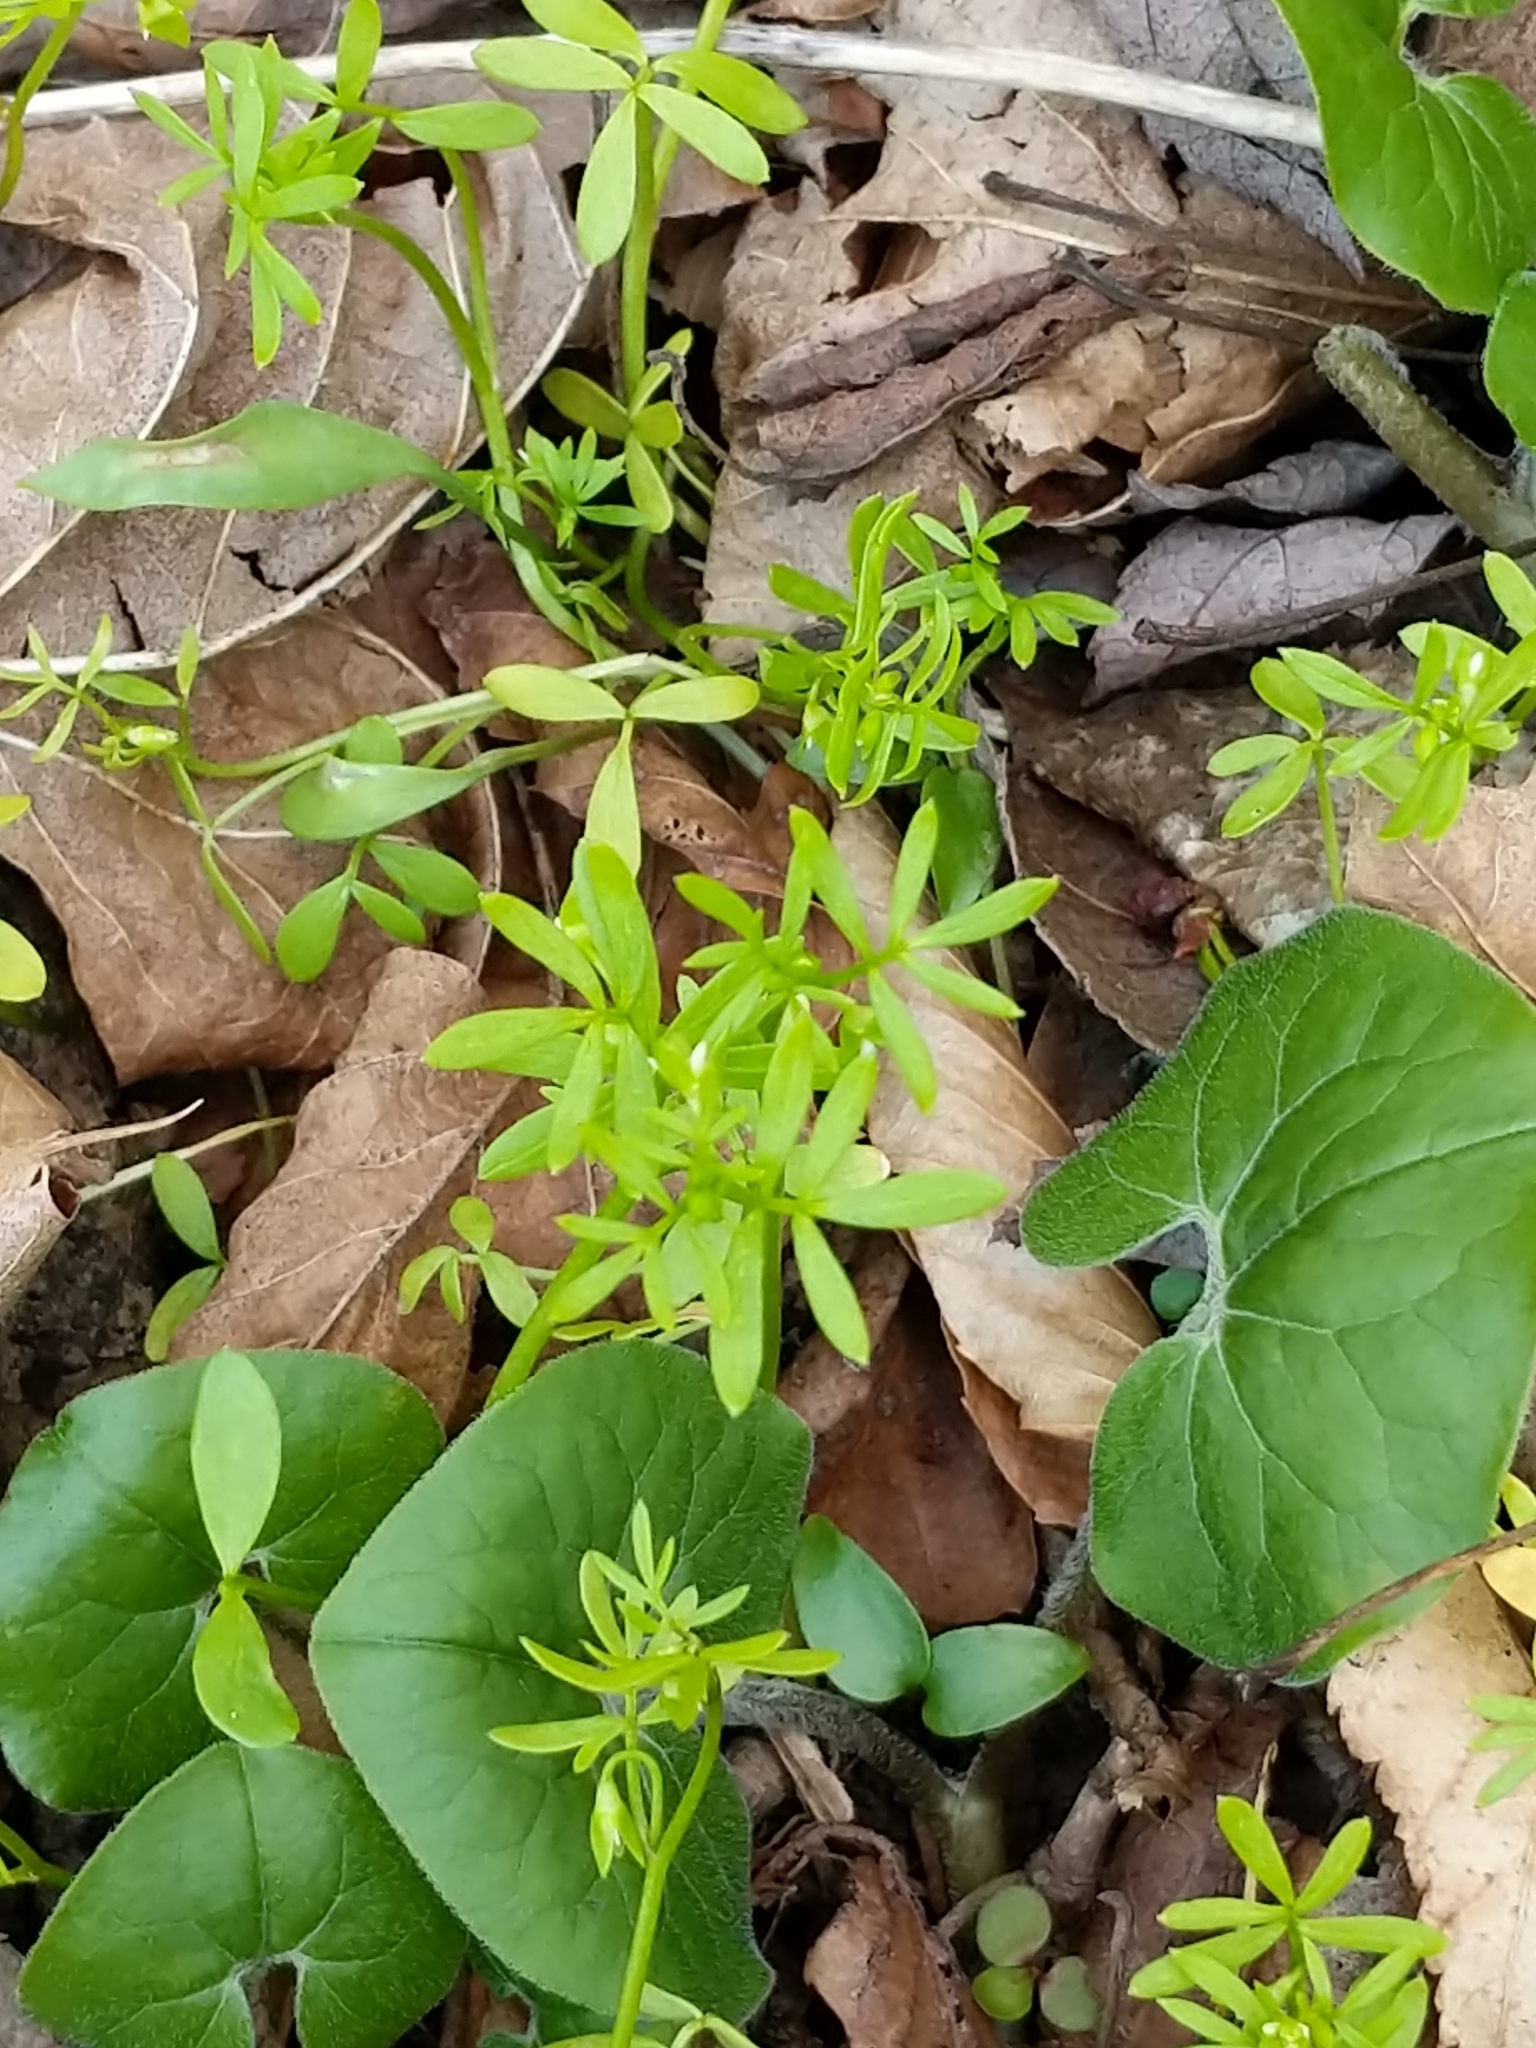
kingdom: Plantae
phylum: Tracheophyta
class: Magnoliopsida
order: Brassicales
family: Limnanthaceae
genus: Floerkea
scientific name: Floerkea proserpinacoides
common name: False mermaid
